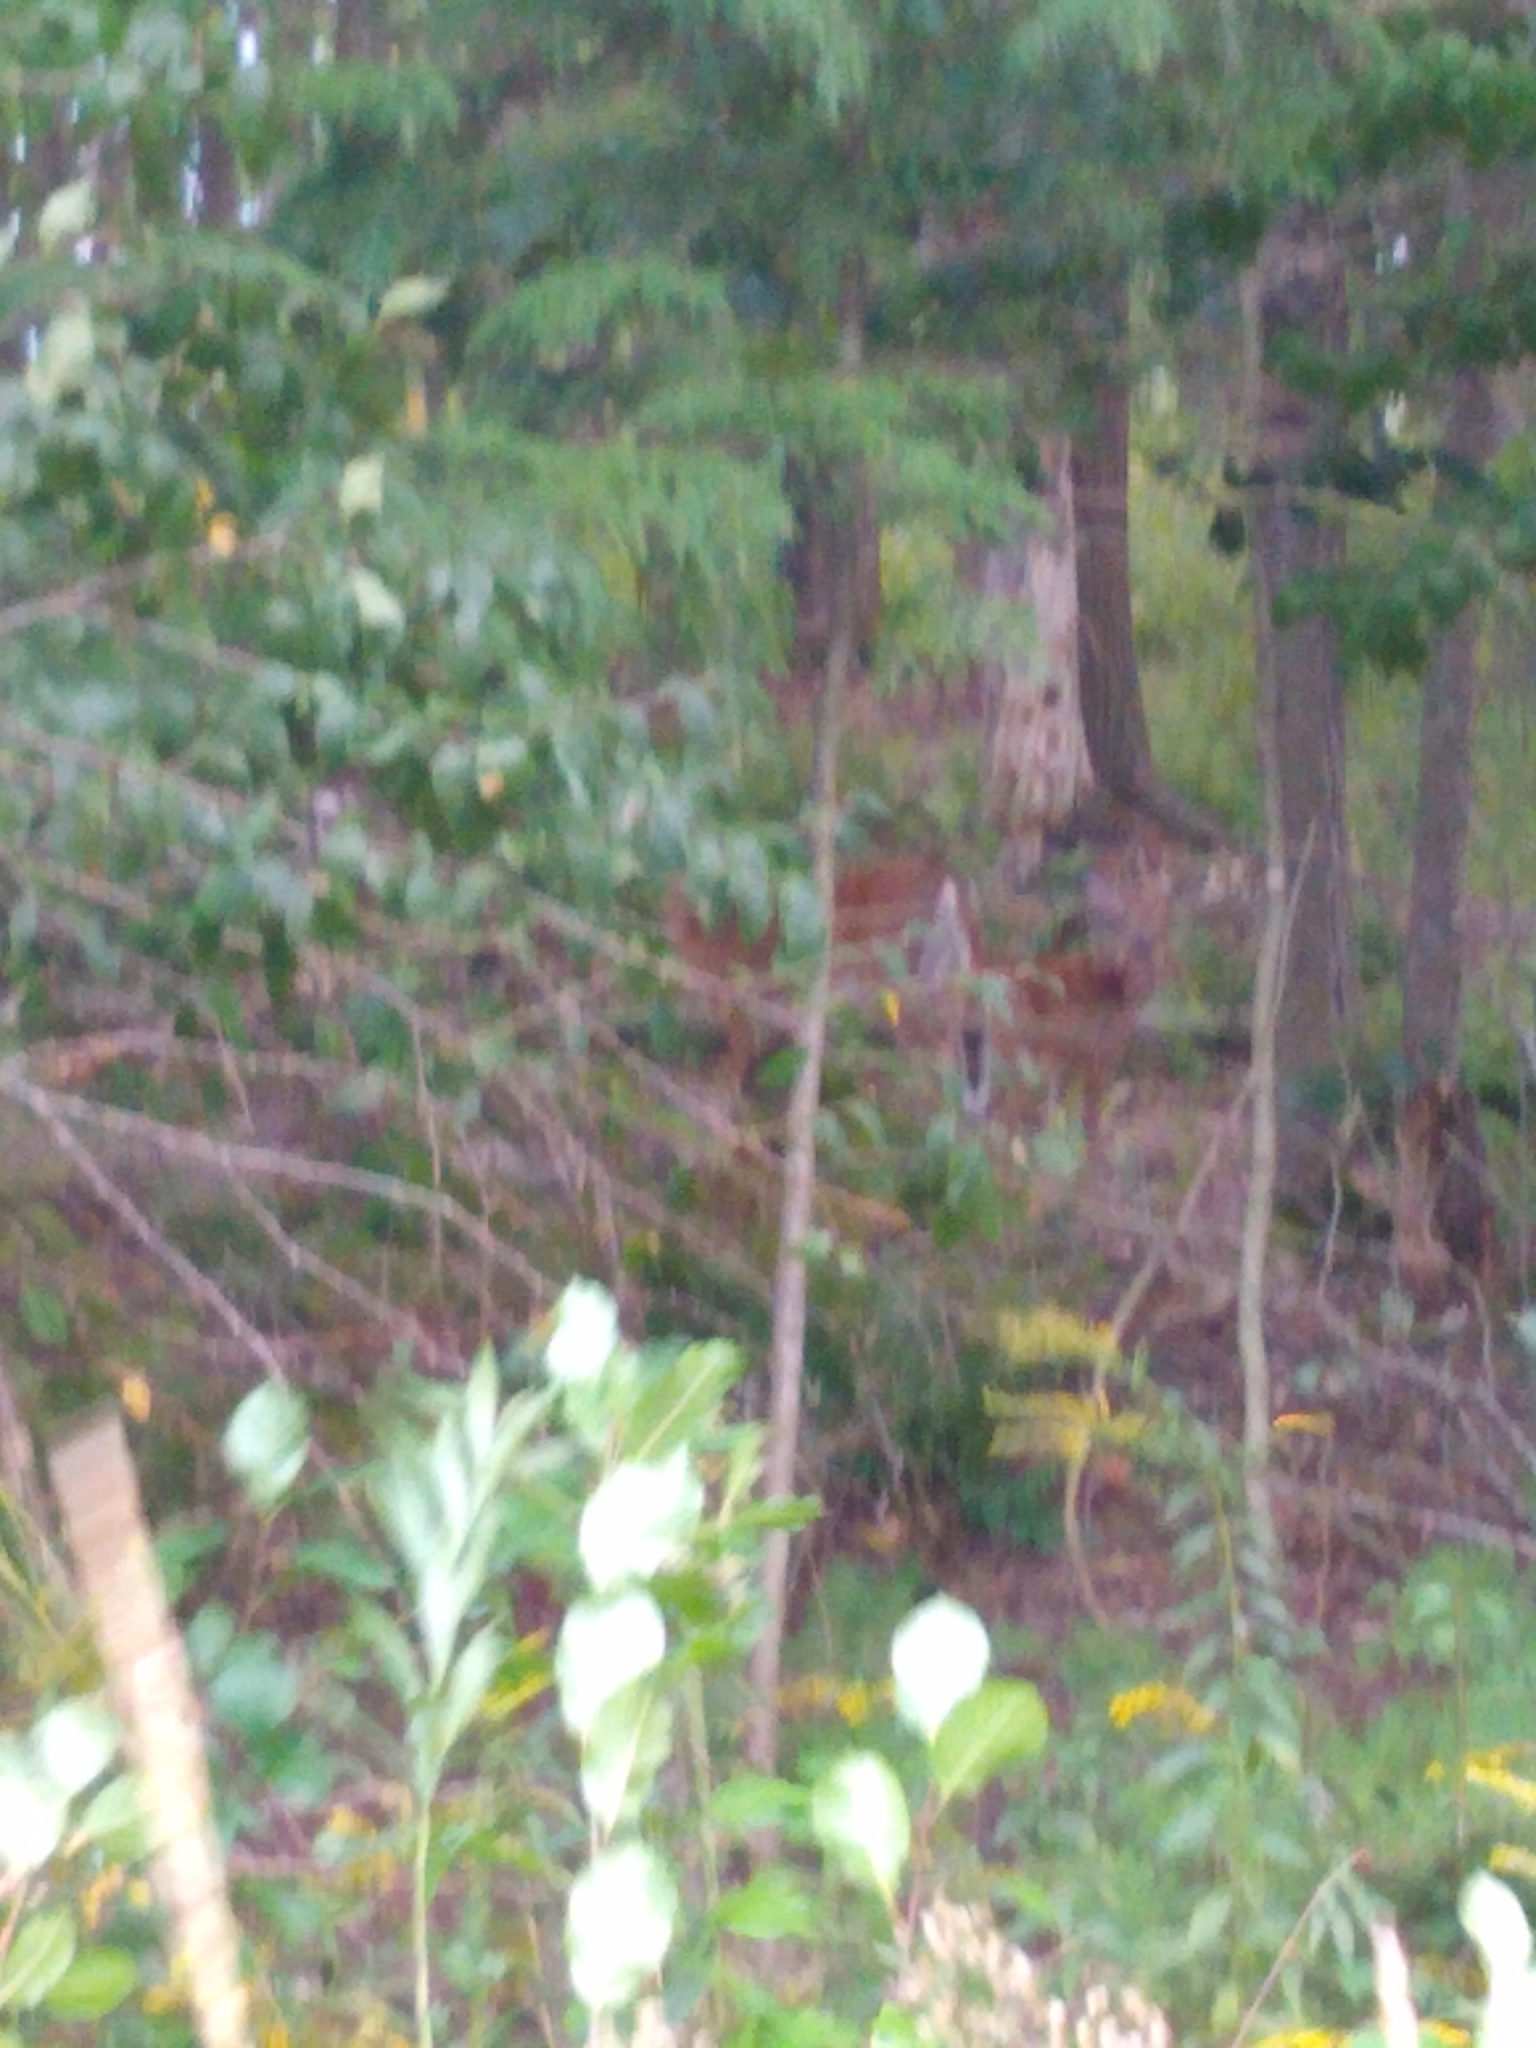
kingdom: Animalia
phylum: Chordata
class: Mammalia
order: Artiodactyla
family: Cervidae
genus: Odocoileus
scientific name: Odocoileus virginianus
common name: White-tailed deer
